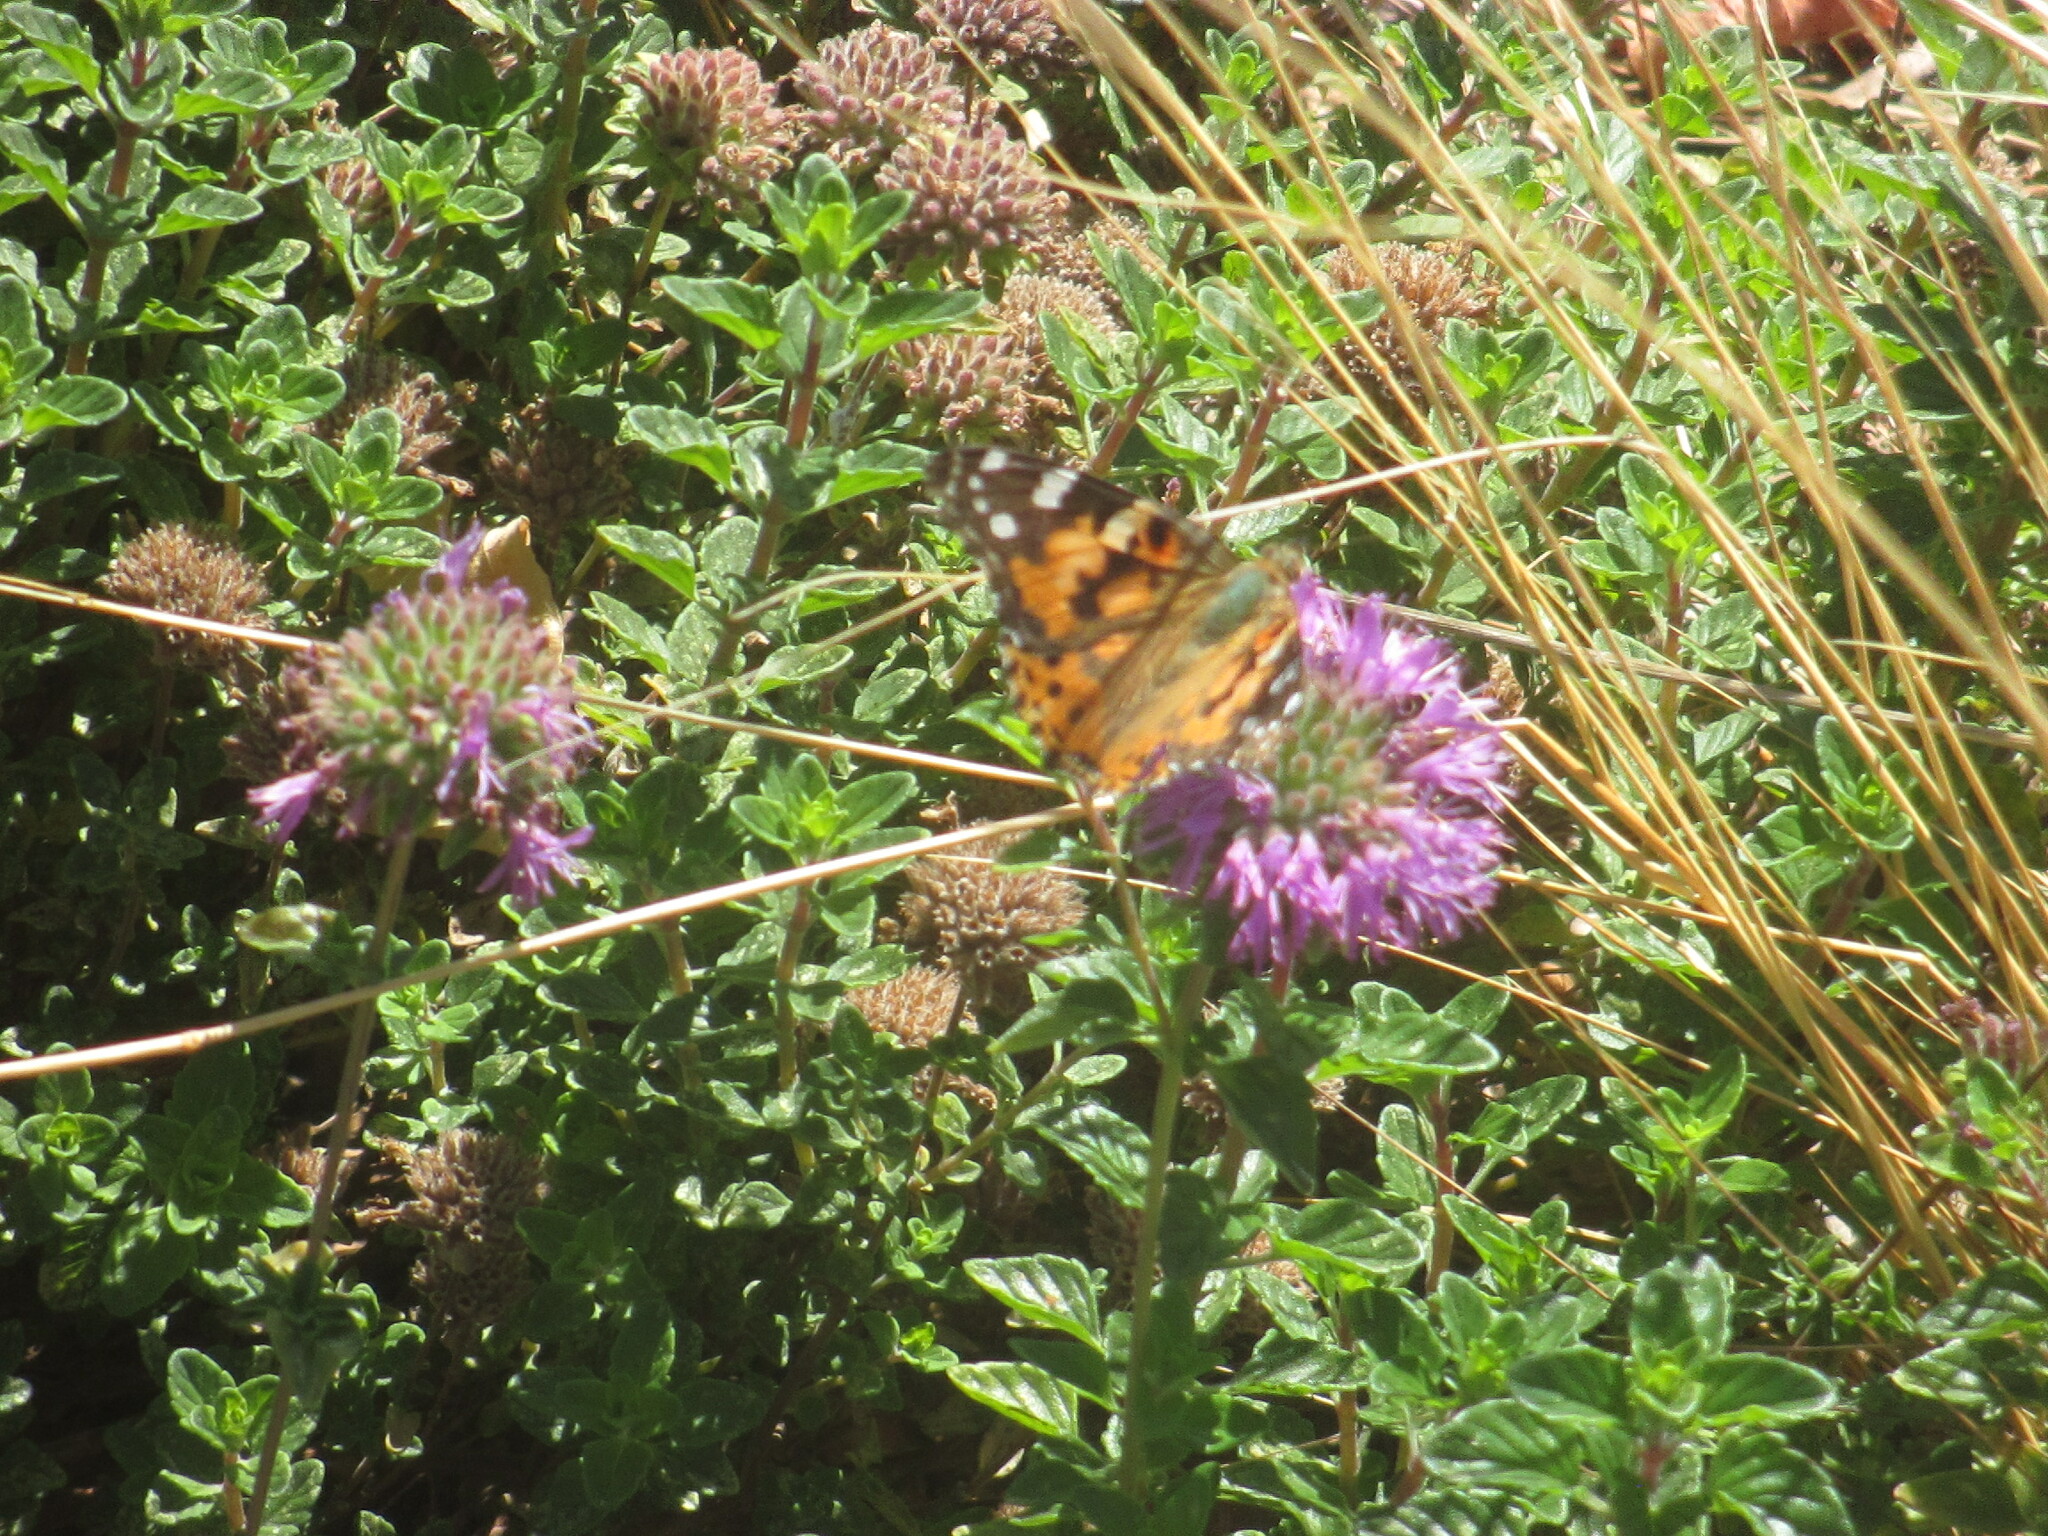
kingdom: Animalia
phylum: Arthropoda
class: Insecta
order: Lepidoptera
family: Nymphalidae
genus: Vanessa
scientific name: Vanessa cardui
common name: Painted lady
